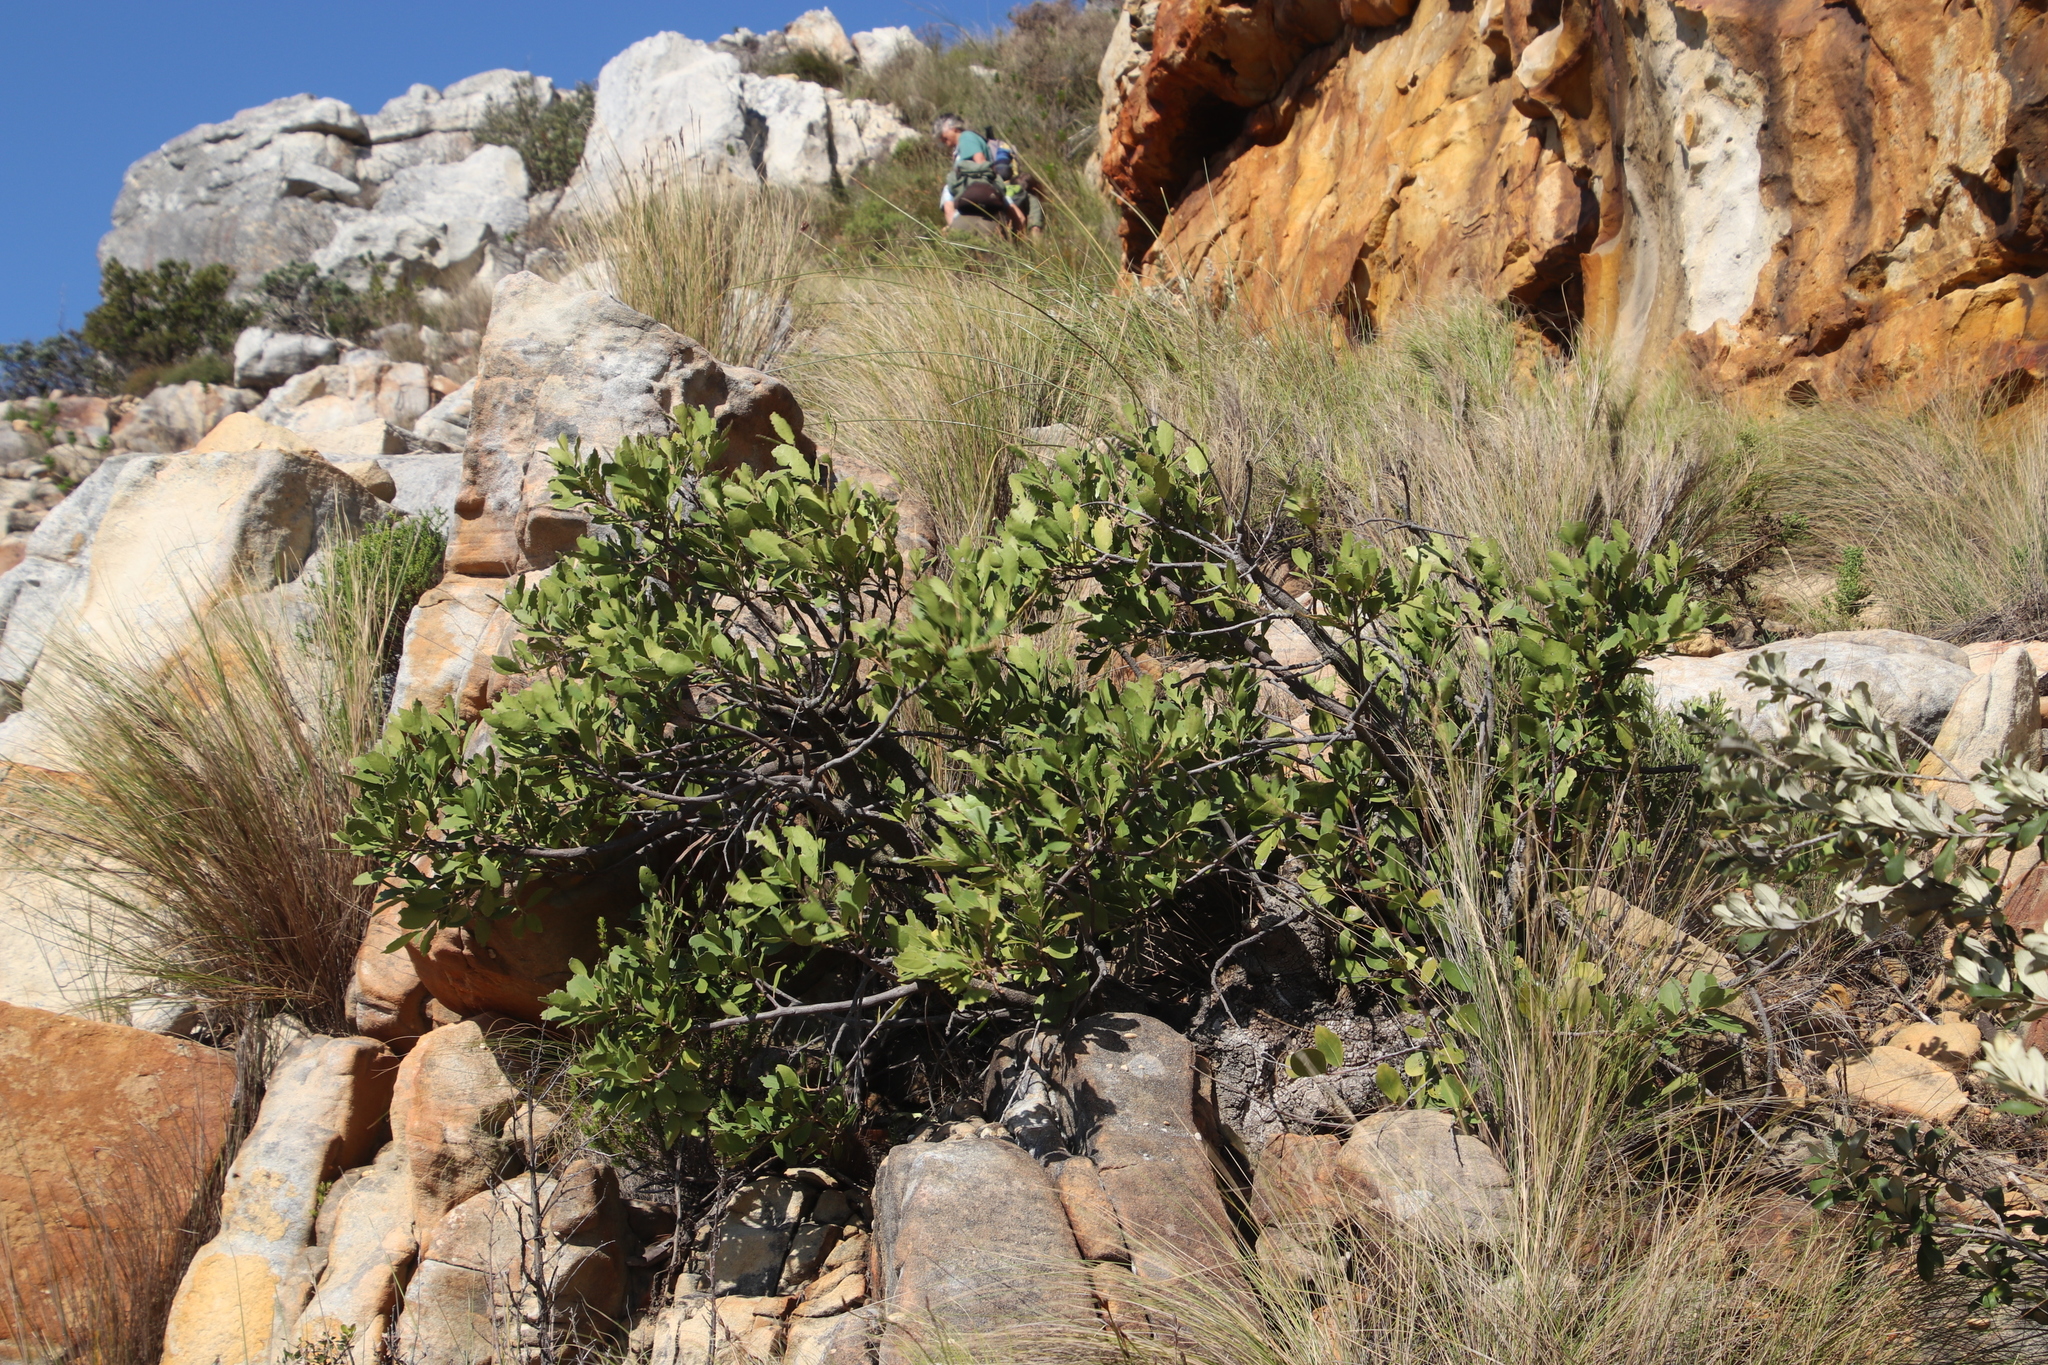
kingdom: Plantae
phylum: Tracheophyta
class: Magnoliopsida
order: Celastrales
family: Celastraceae
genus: Gymnosporia
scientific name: Gymnosporia laurina
